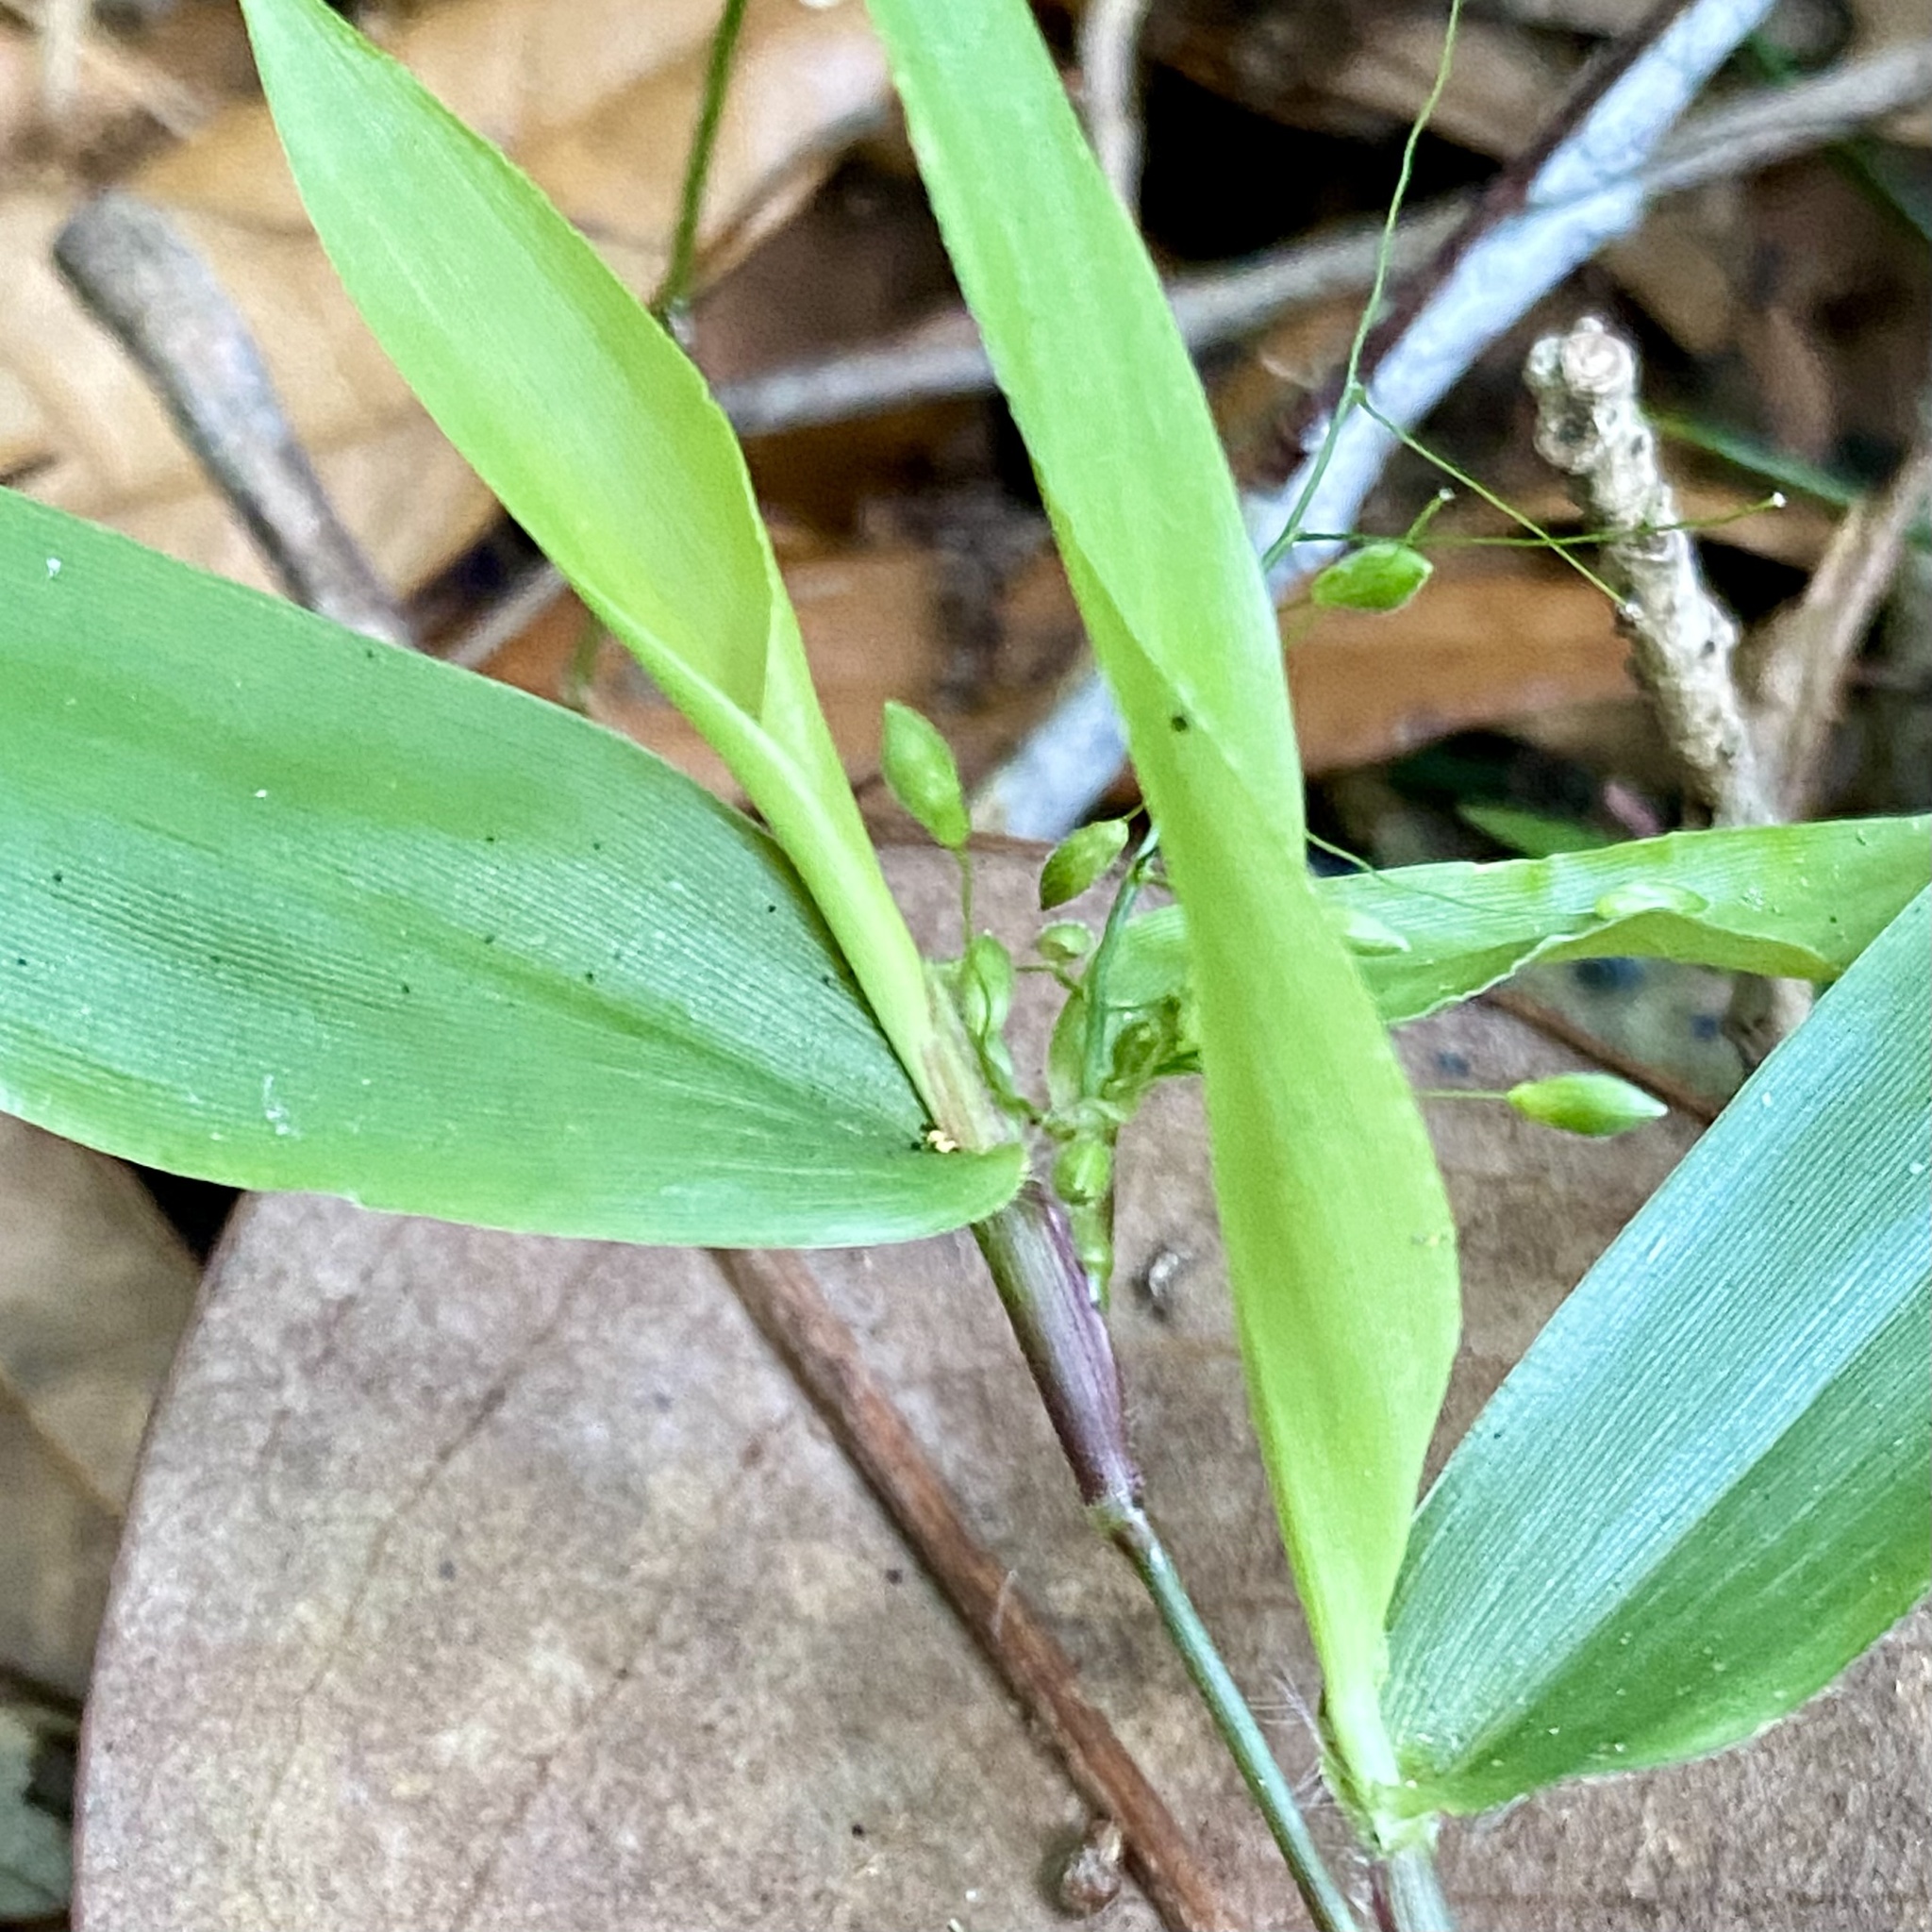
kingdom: Plantae
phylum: Tracheophyta
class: Liliopsida
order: Poales
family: Poaceae
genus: Dichanthelium
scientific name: Dichanthelium commutatum
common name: Variable witchgrass
